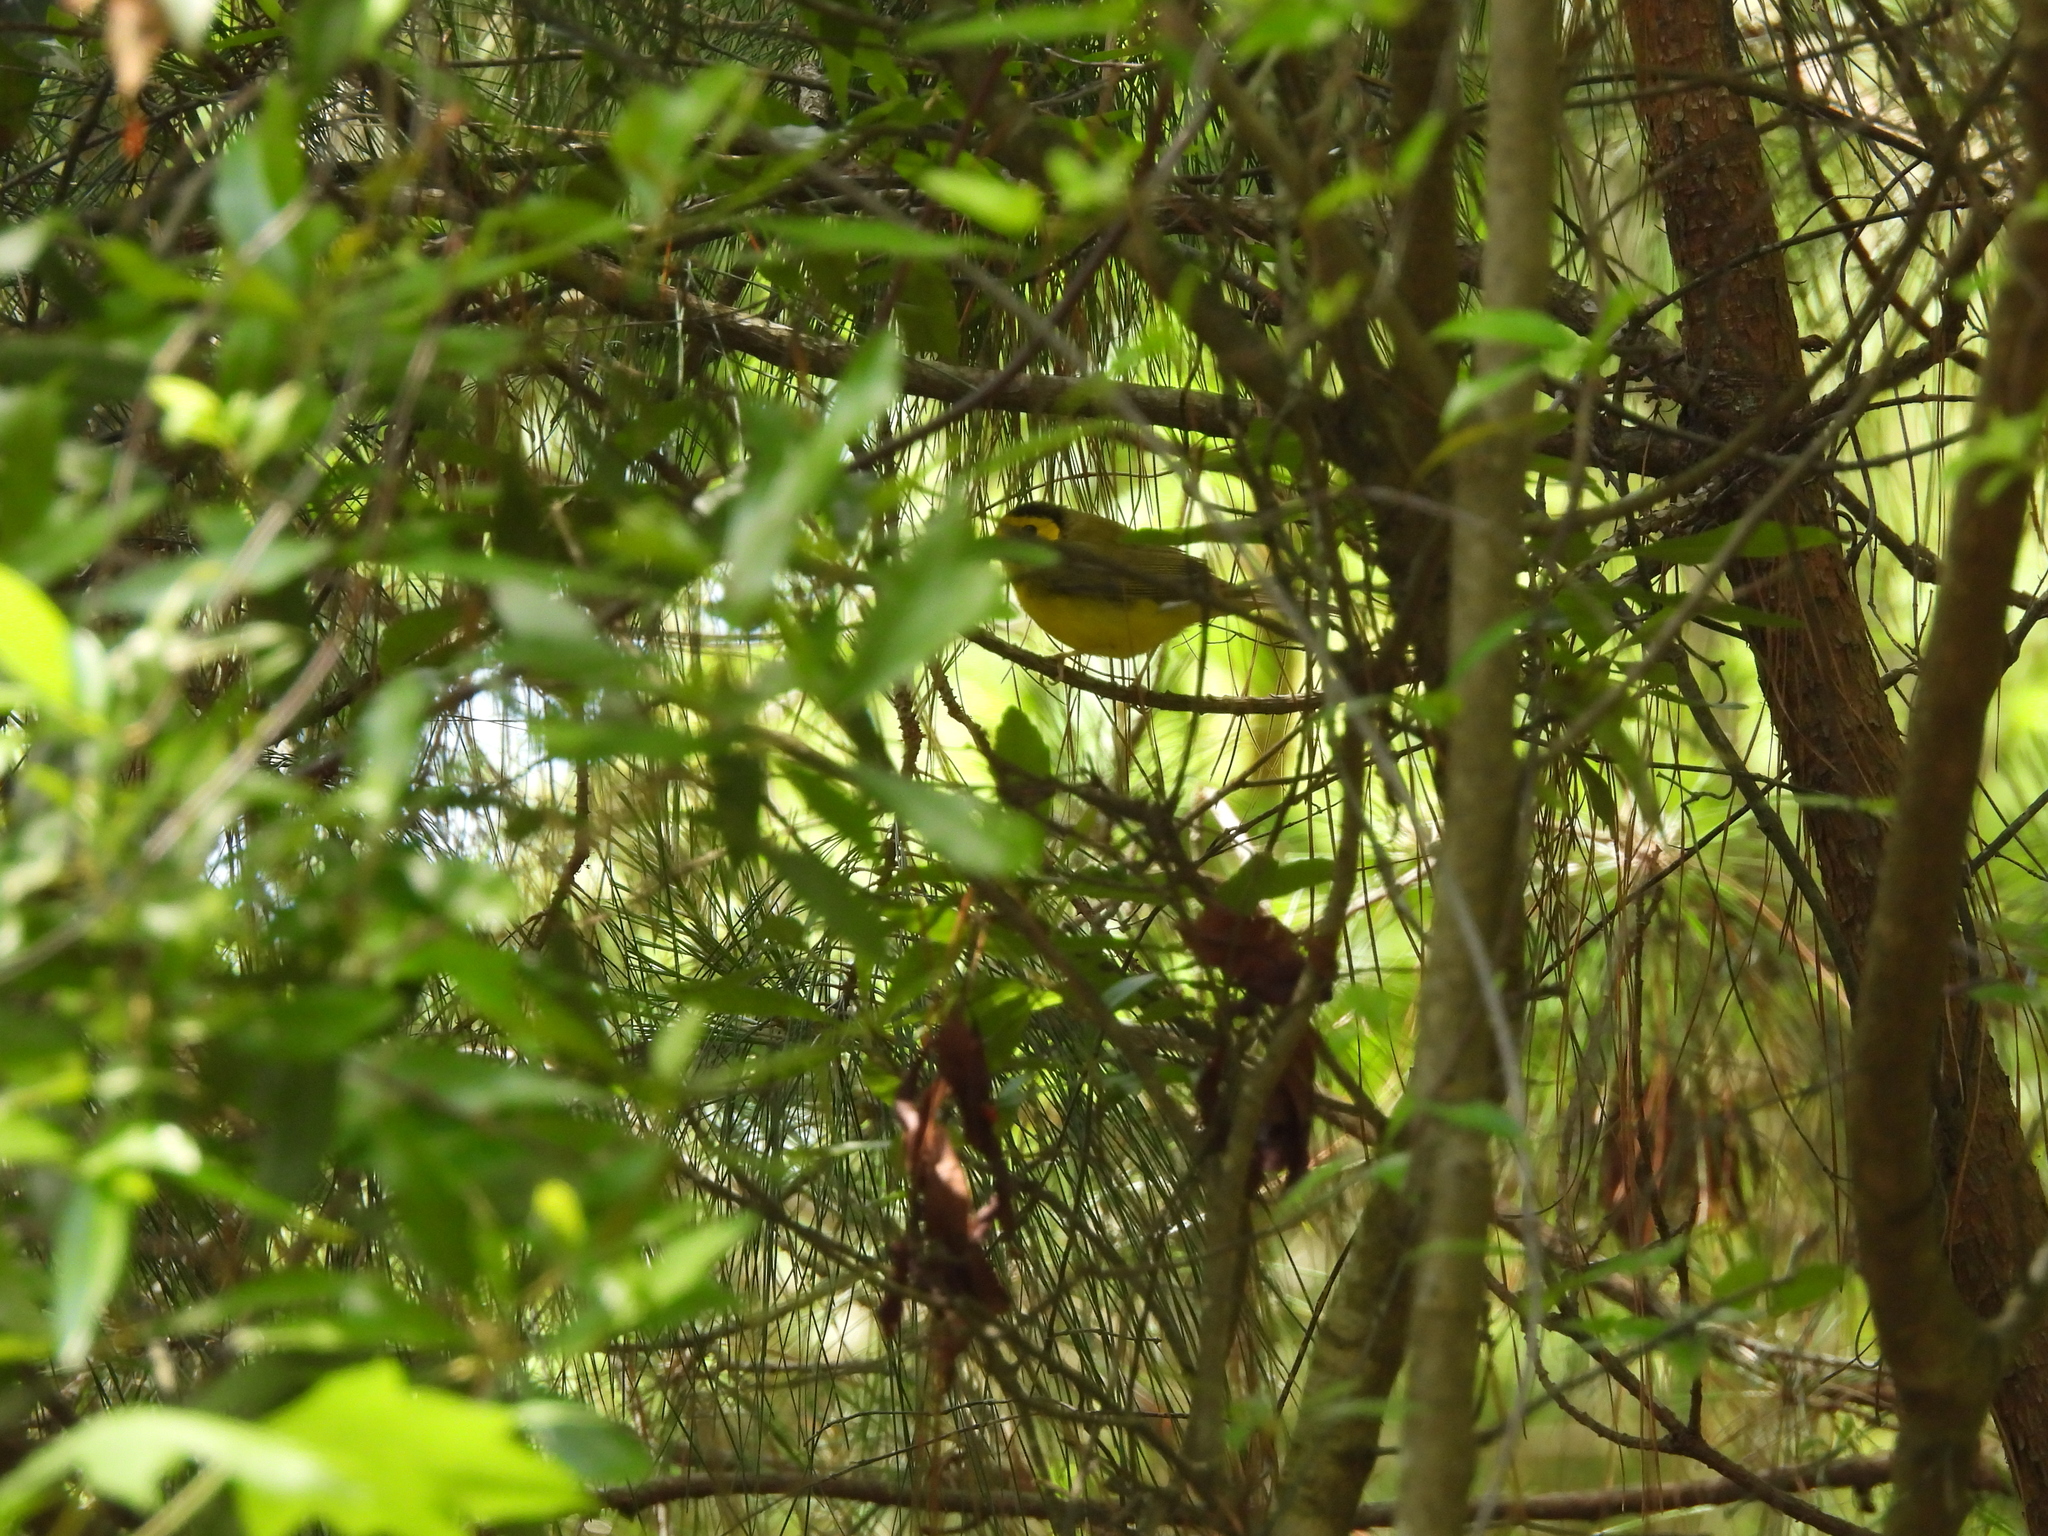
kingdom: Animalia
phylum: Chordata
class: Aves
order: Passeriformes
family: Parulidae
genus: Setophaga
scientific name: Setophaga citrina
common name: Hooded warbler
